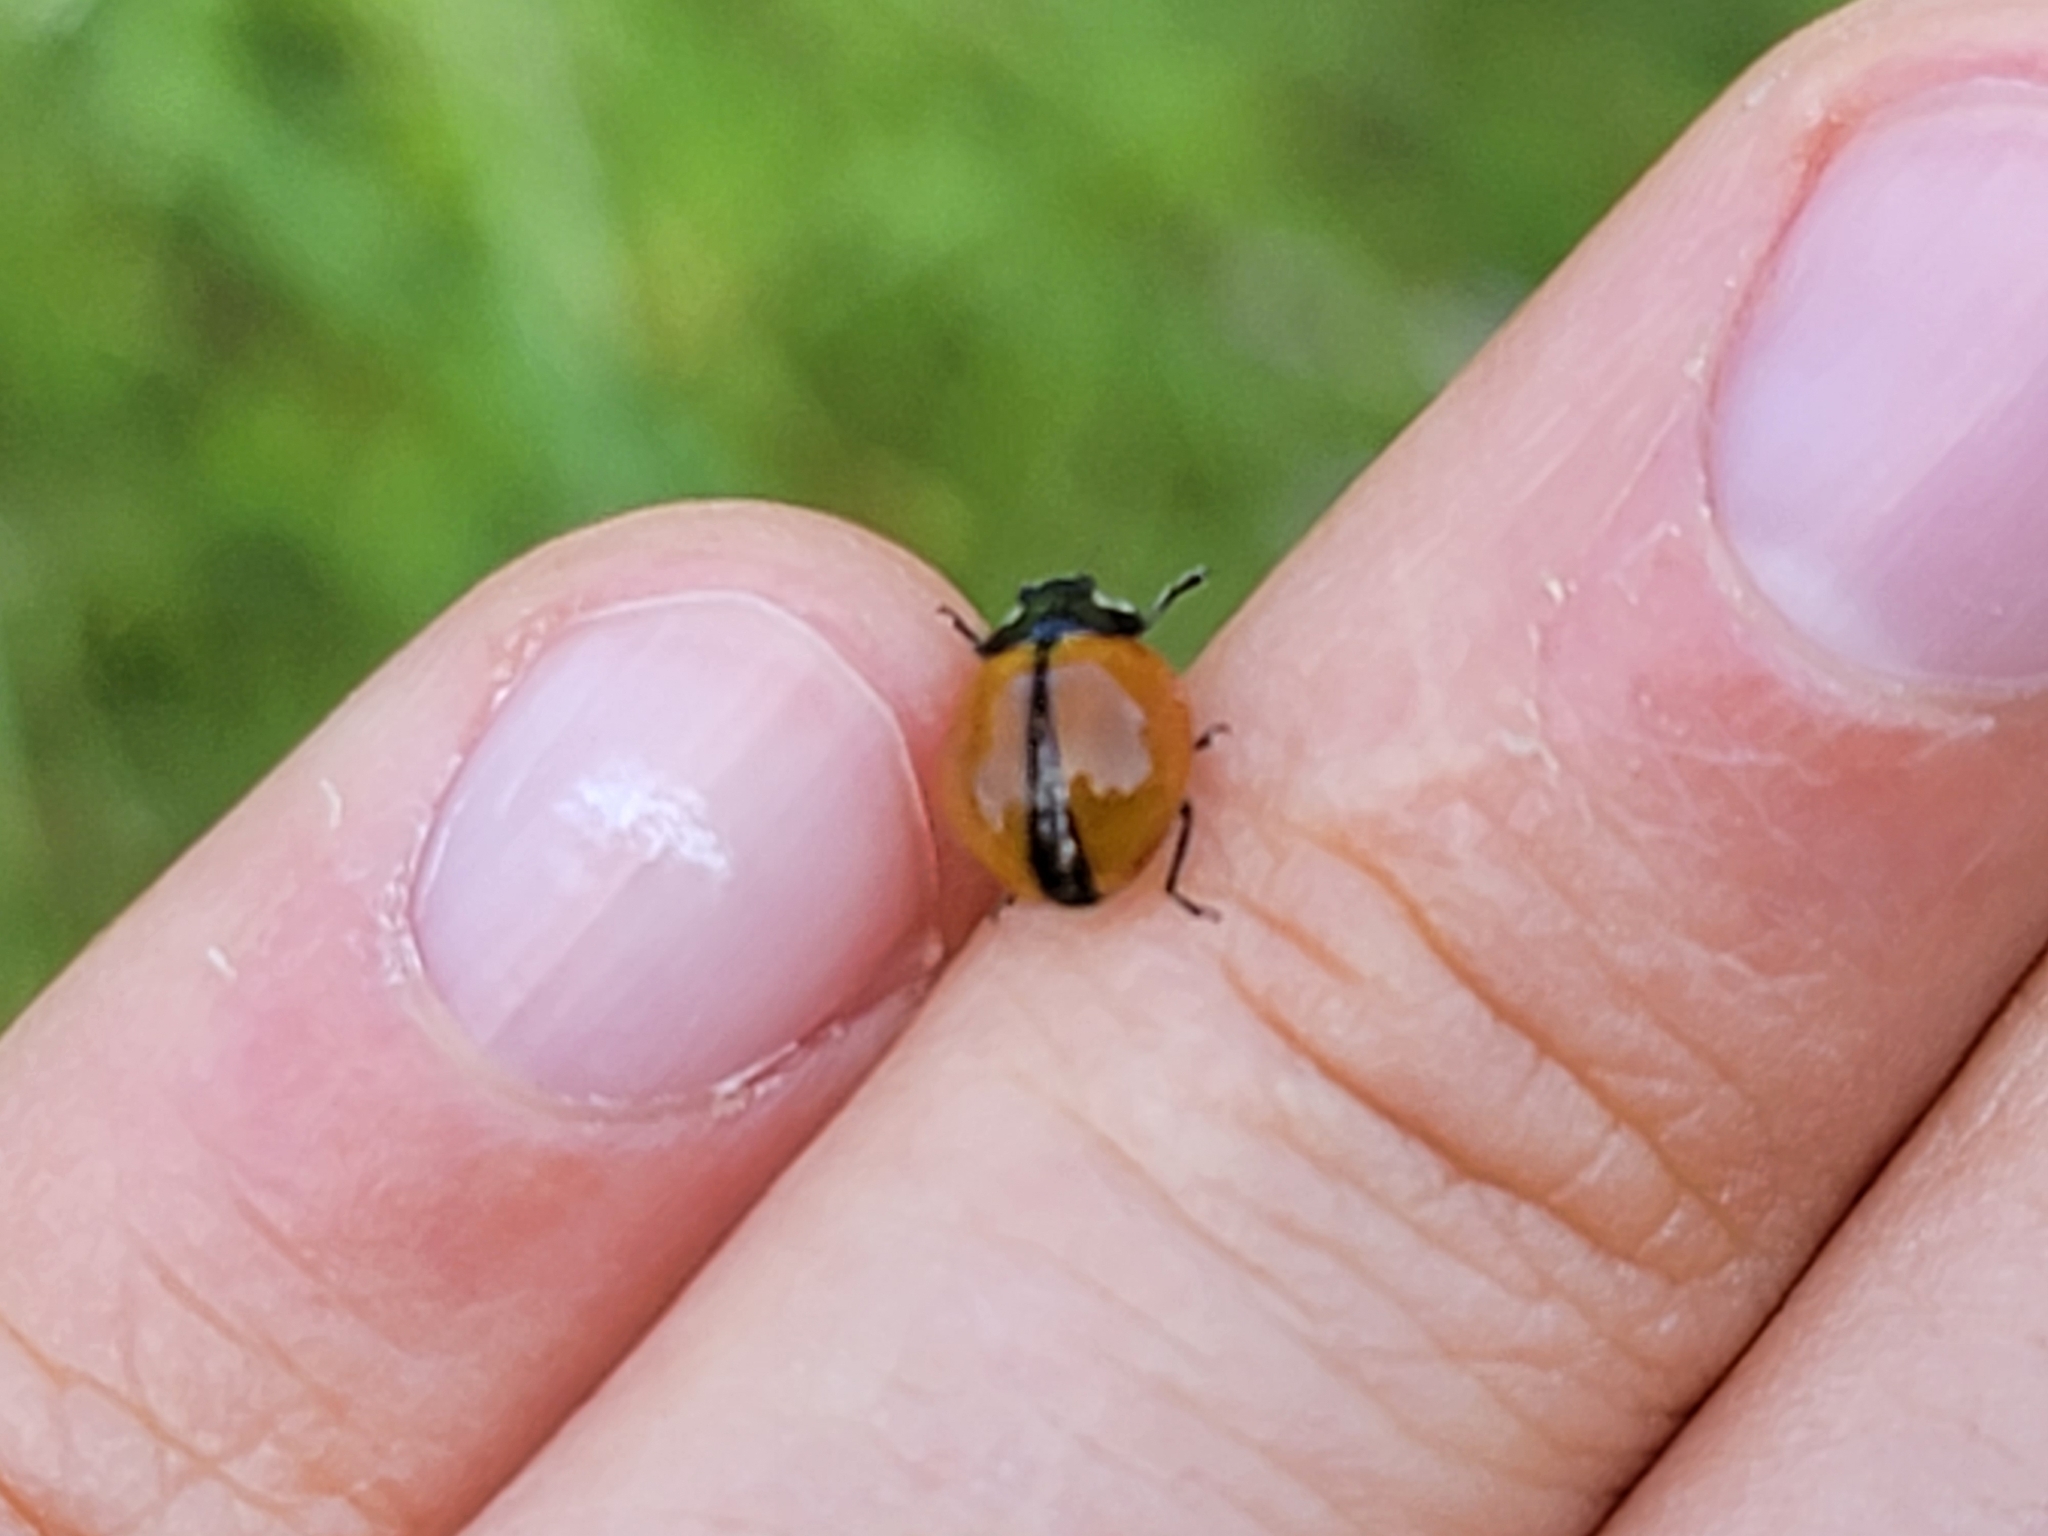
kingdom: Animalia
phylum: Arthropoda
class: Insecta
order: Coleoptera
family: Coccinellidae
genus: Coccinella
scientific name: Coccinella californica
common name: Lady beetle
